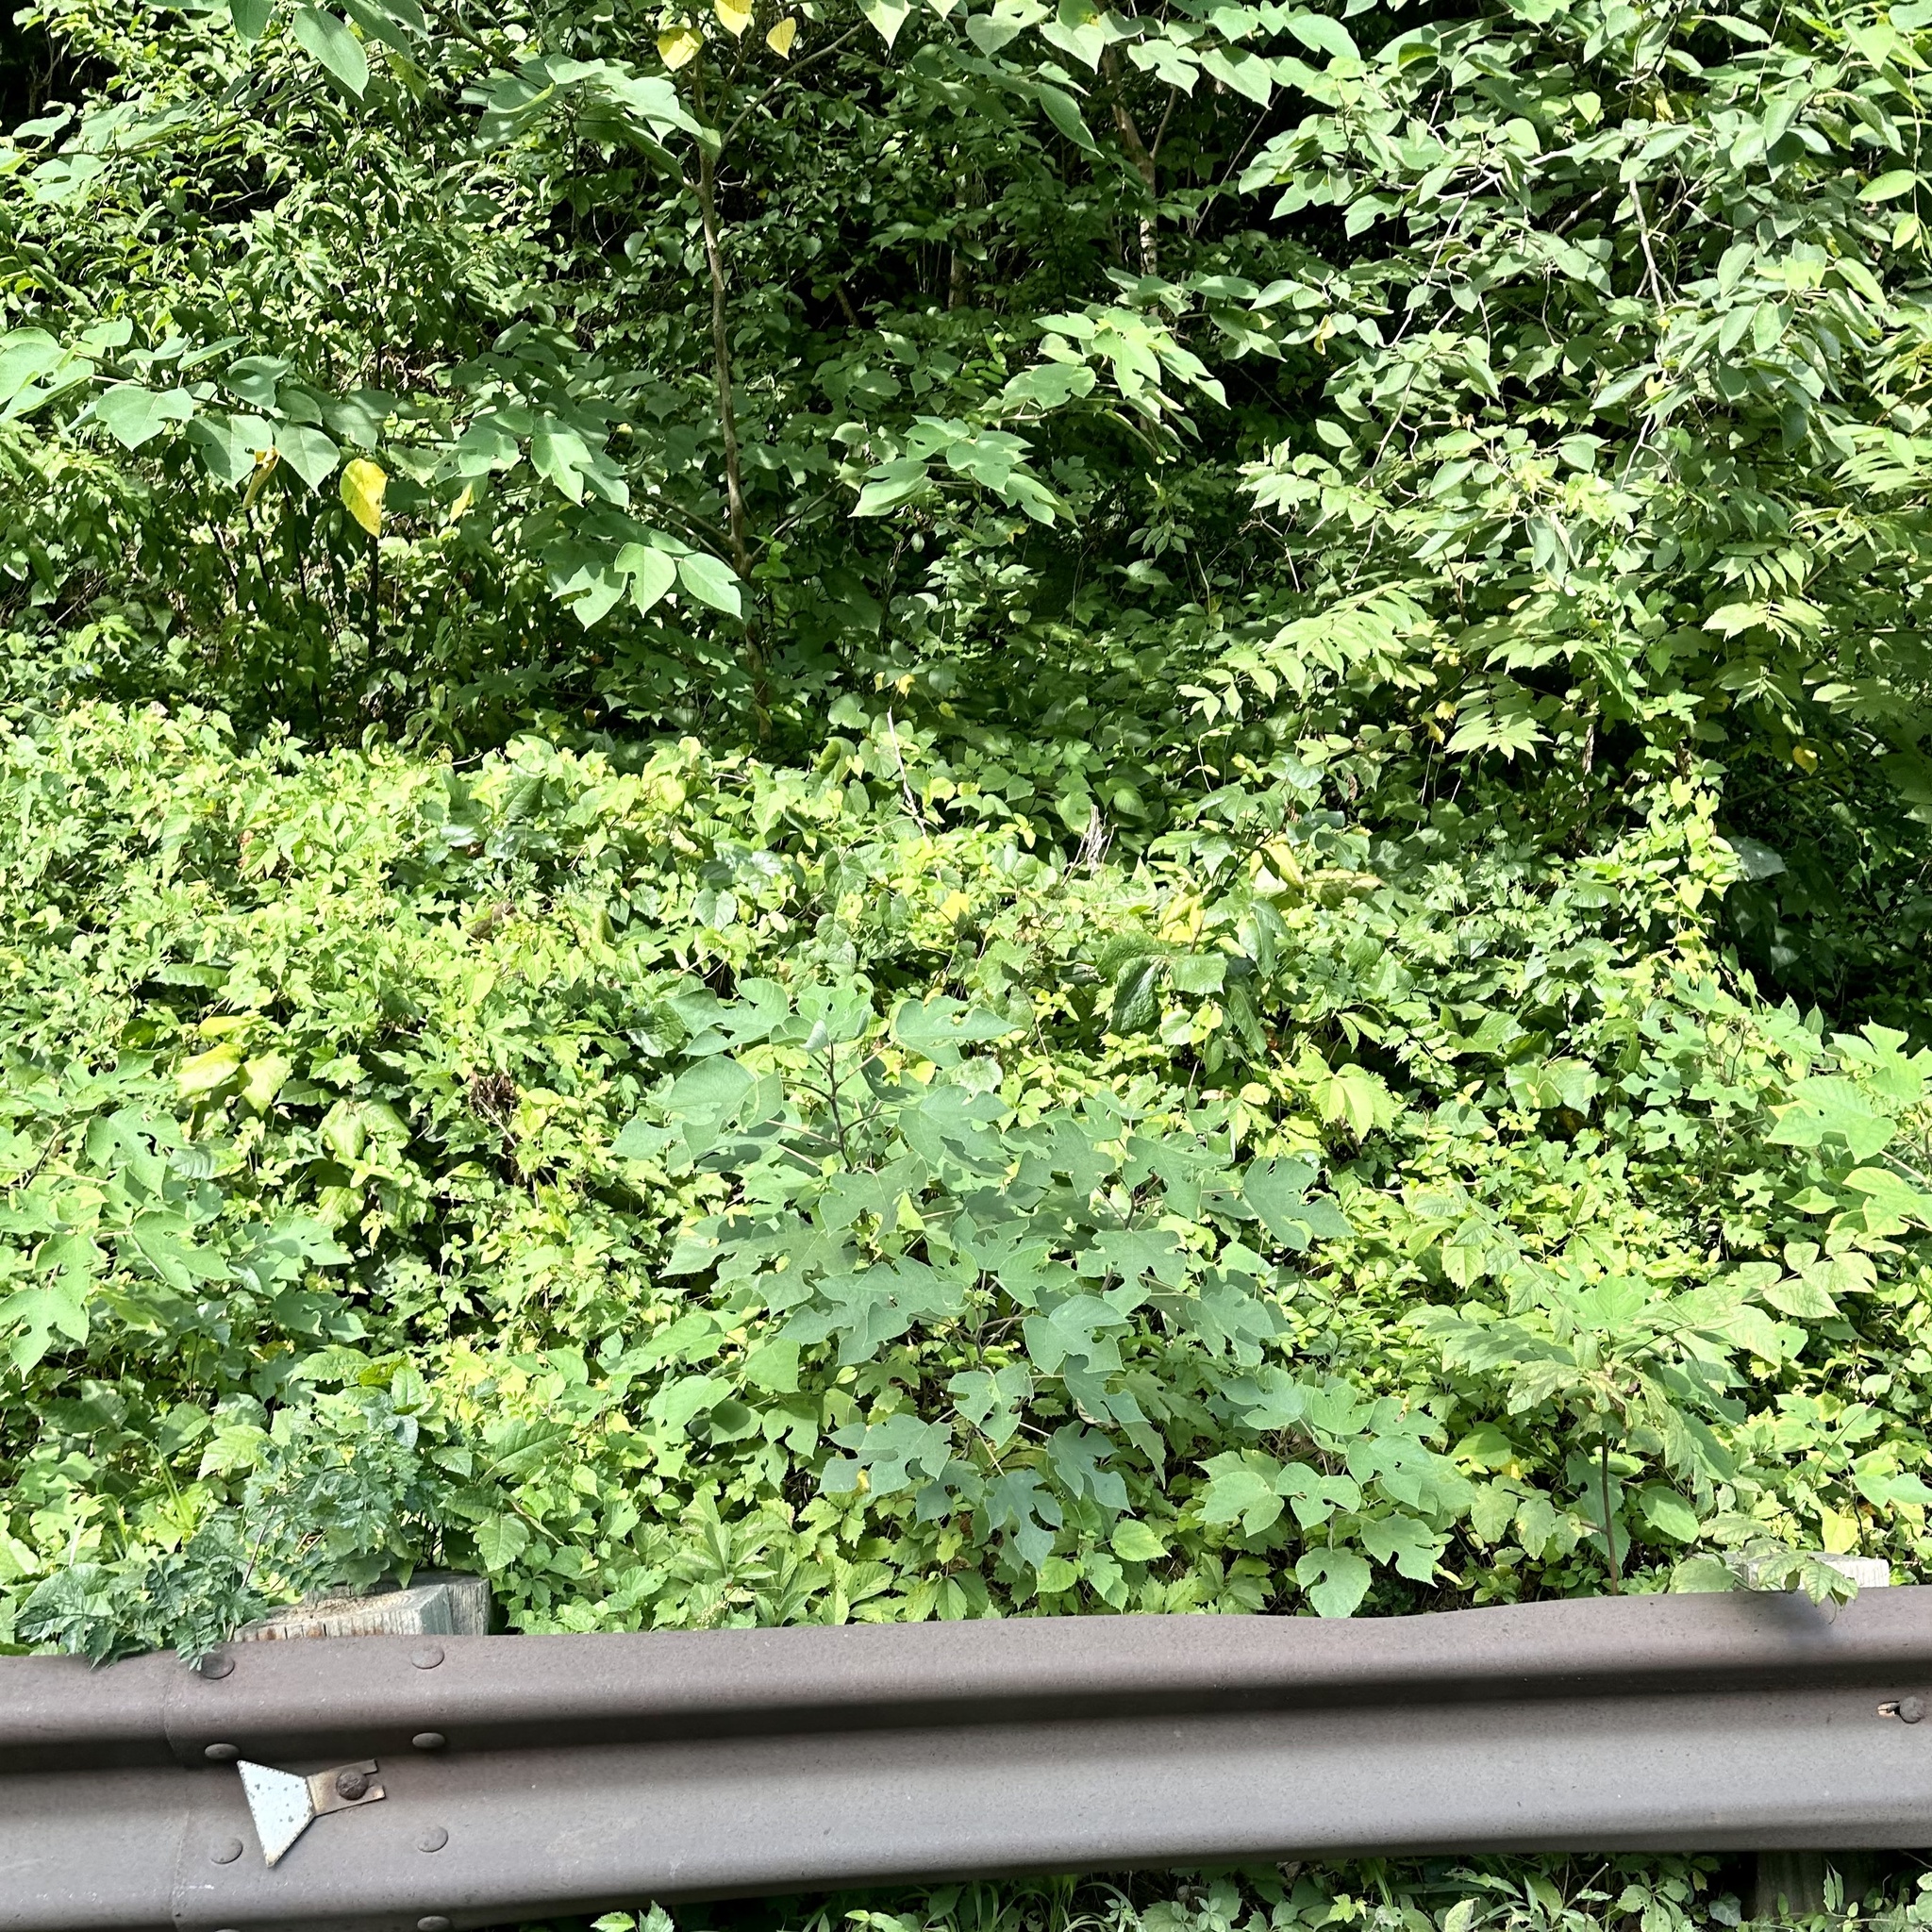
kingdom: Plantae
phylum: Tracheophyta
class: Magnoliopsida
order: Rosales
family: Moraceae
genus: Broussonetia
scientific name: Broussonetia papyrifera
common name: Paper mulberry
